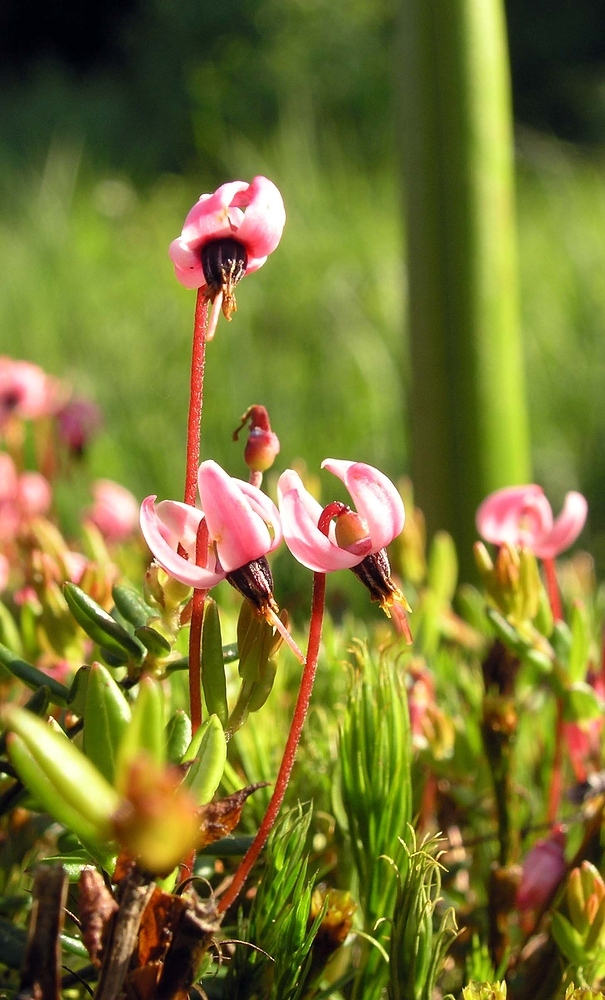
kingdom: Plantae
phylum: Tracheophyta
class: Magnoliopsida
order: Ericales
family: Ericaceae
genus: Vaccinium
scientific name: Vaccinium oxycoccos
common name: Cranberry
